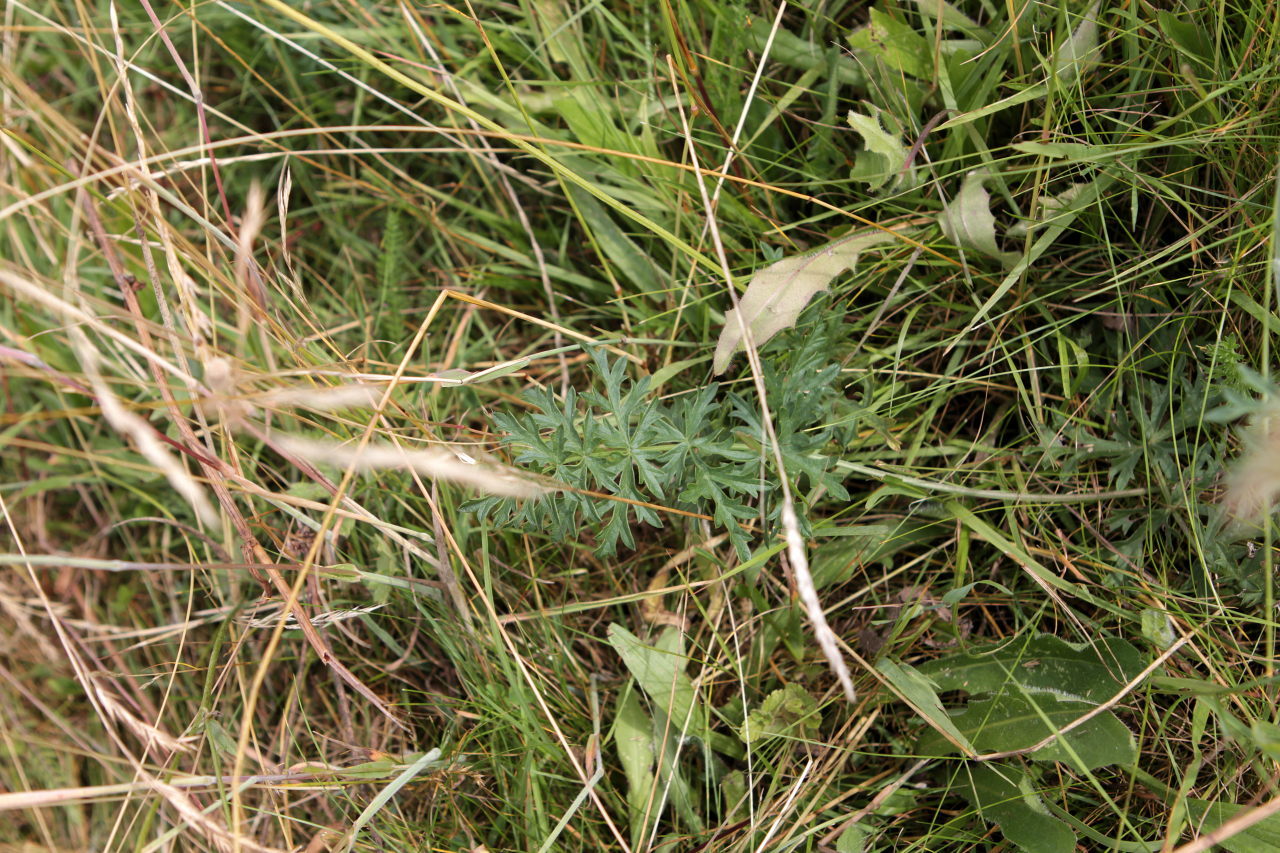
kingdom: Plantae
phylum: Tracheophyta
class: Magnoliopsida
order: Apiales
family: Apiaceae
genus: Pimpinella
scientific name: Pimpinella saxifraga
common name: Burnet-saxifrage
